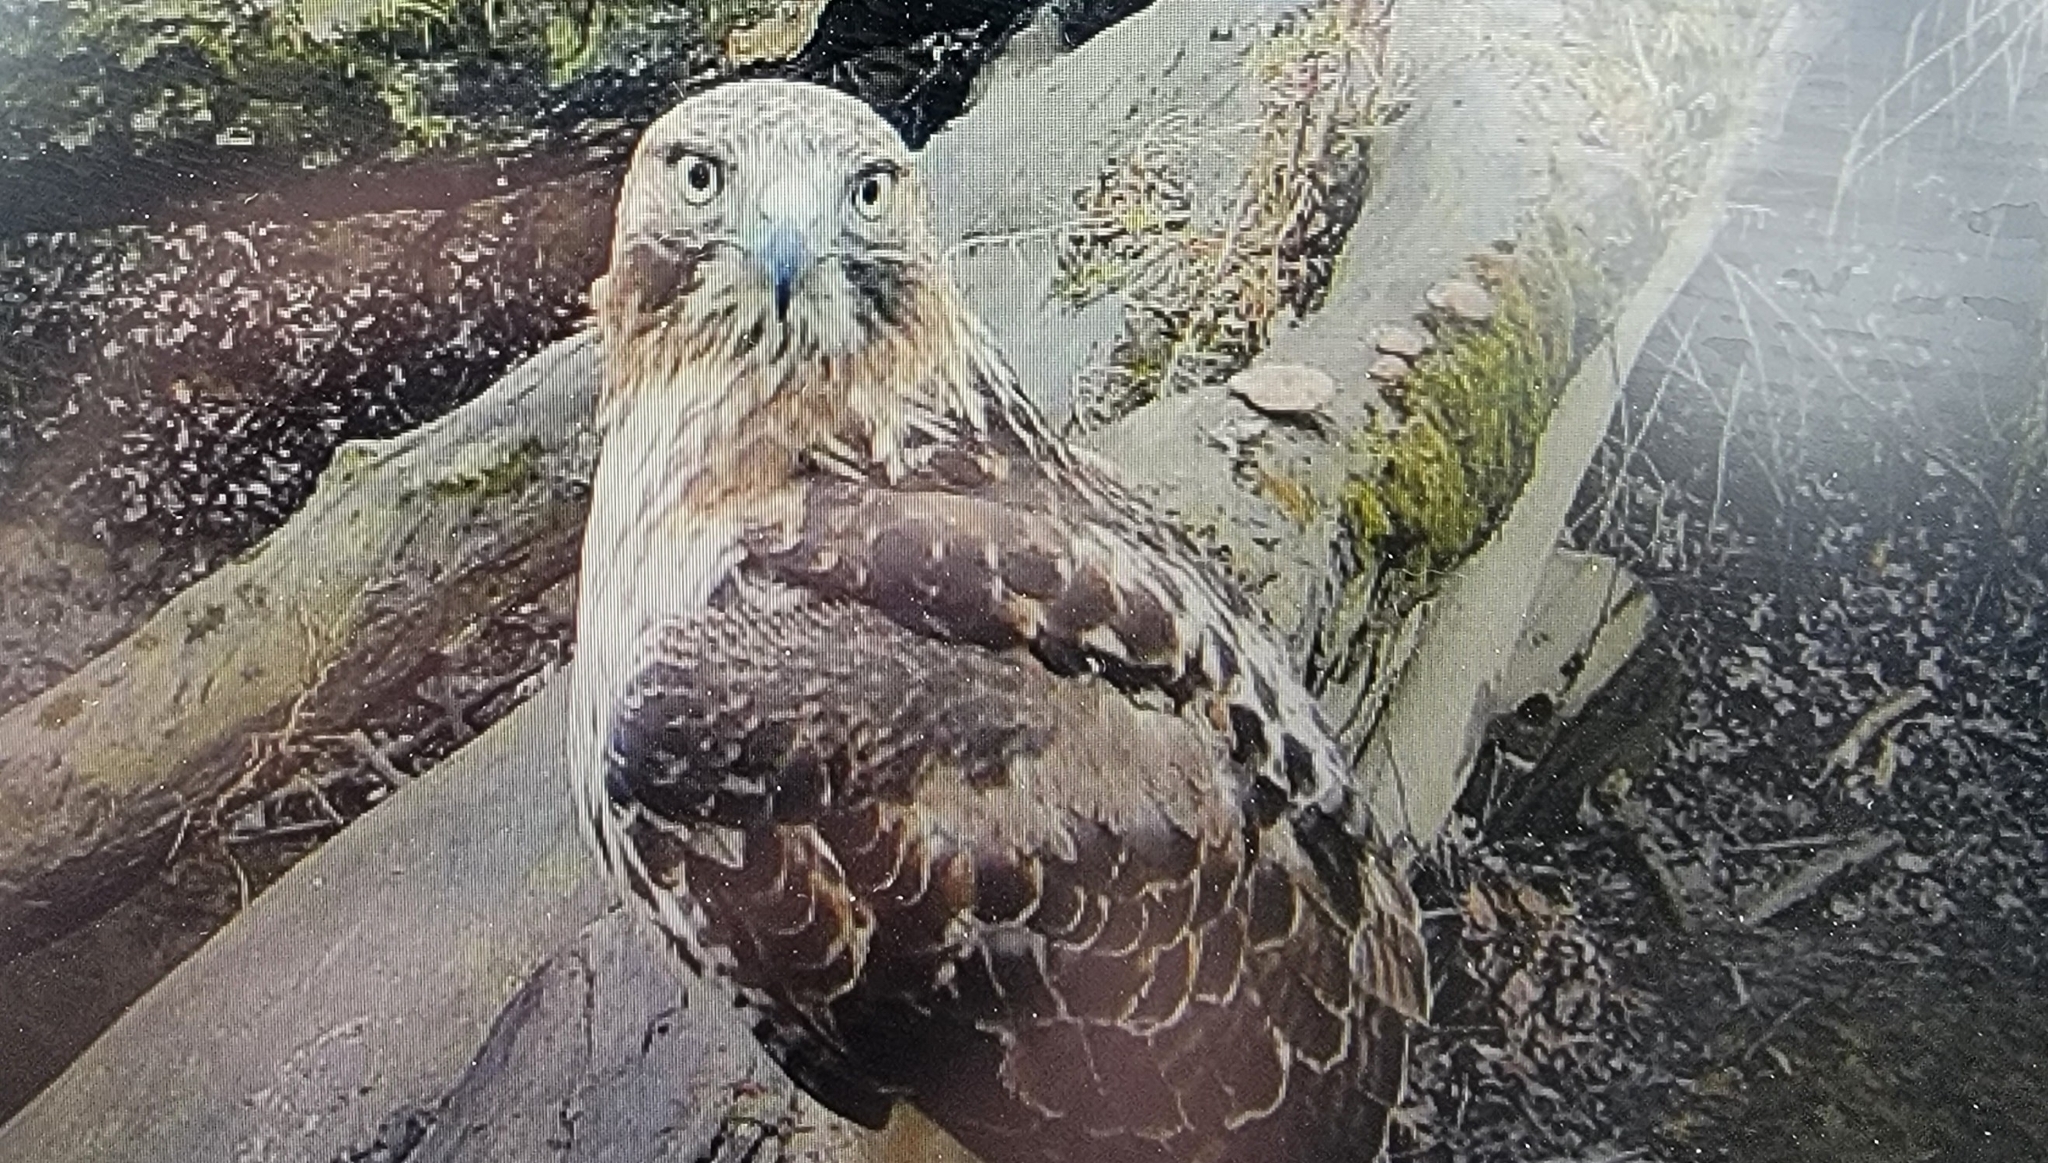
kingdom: Animalia
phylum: Chordata
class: Aves
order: Accipitriformes
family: Accipitridae
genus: Buteo
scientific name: Buteo jamaicensis
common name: Red-tailed hawk
